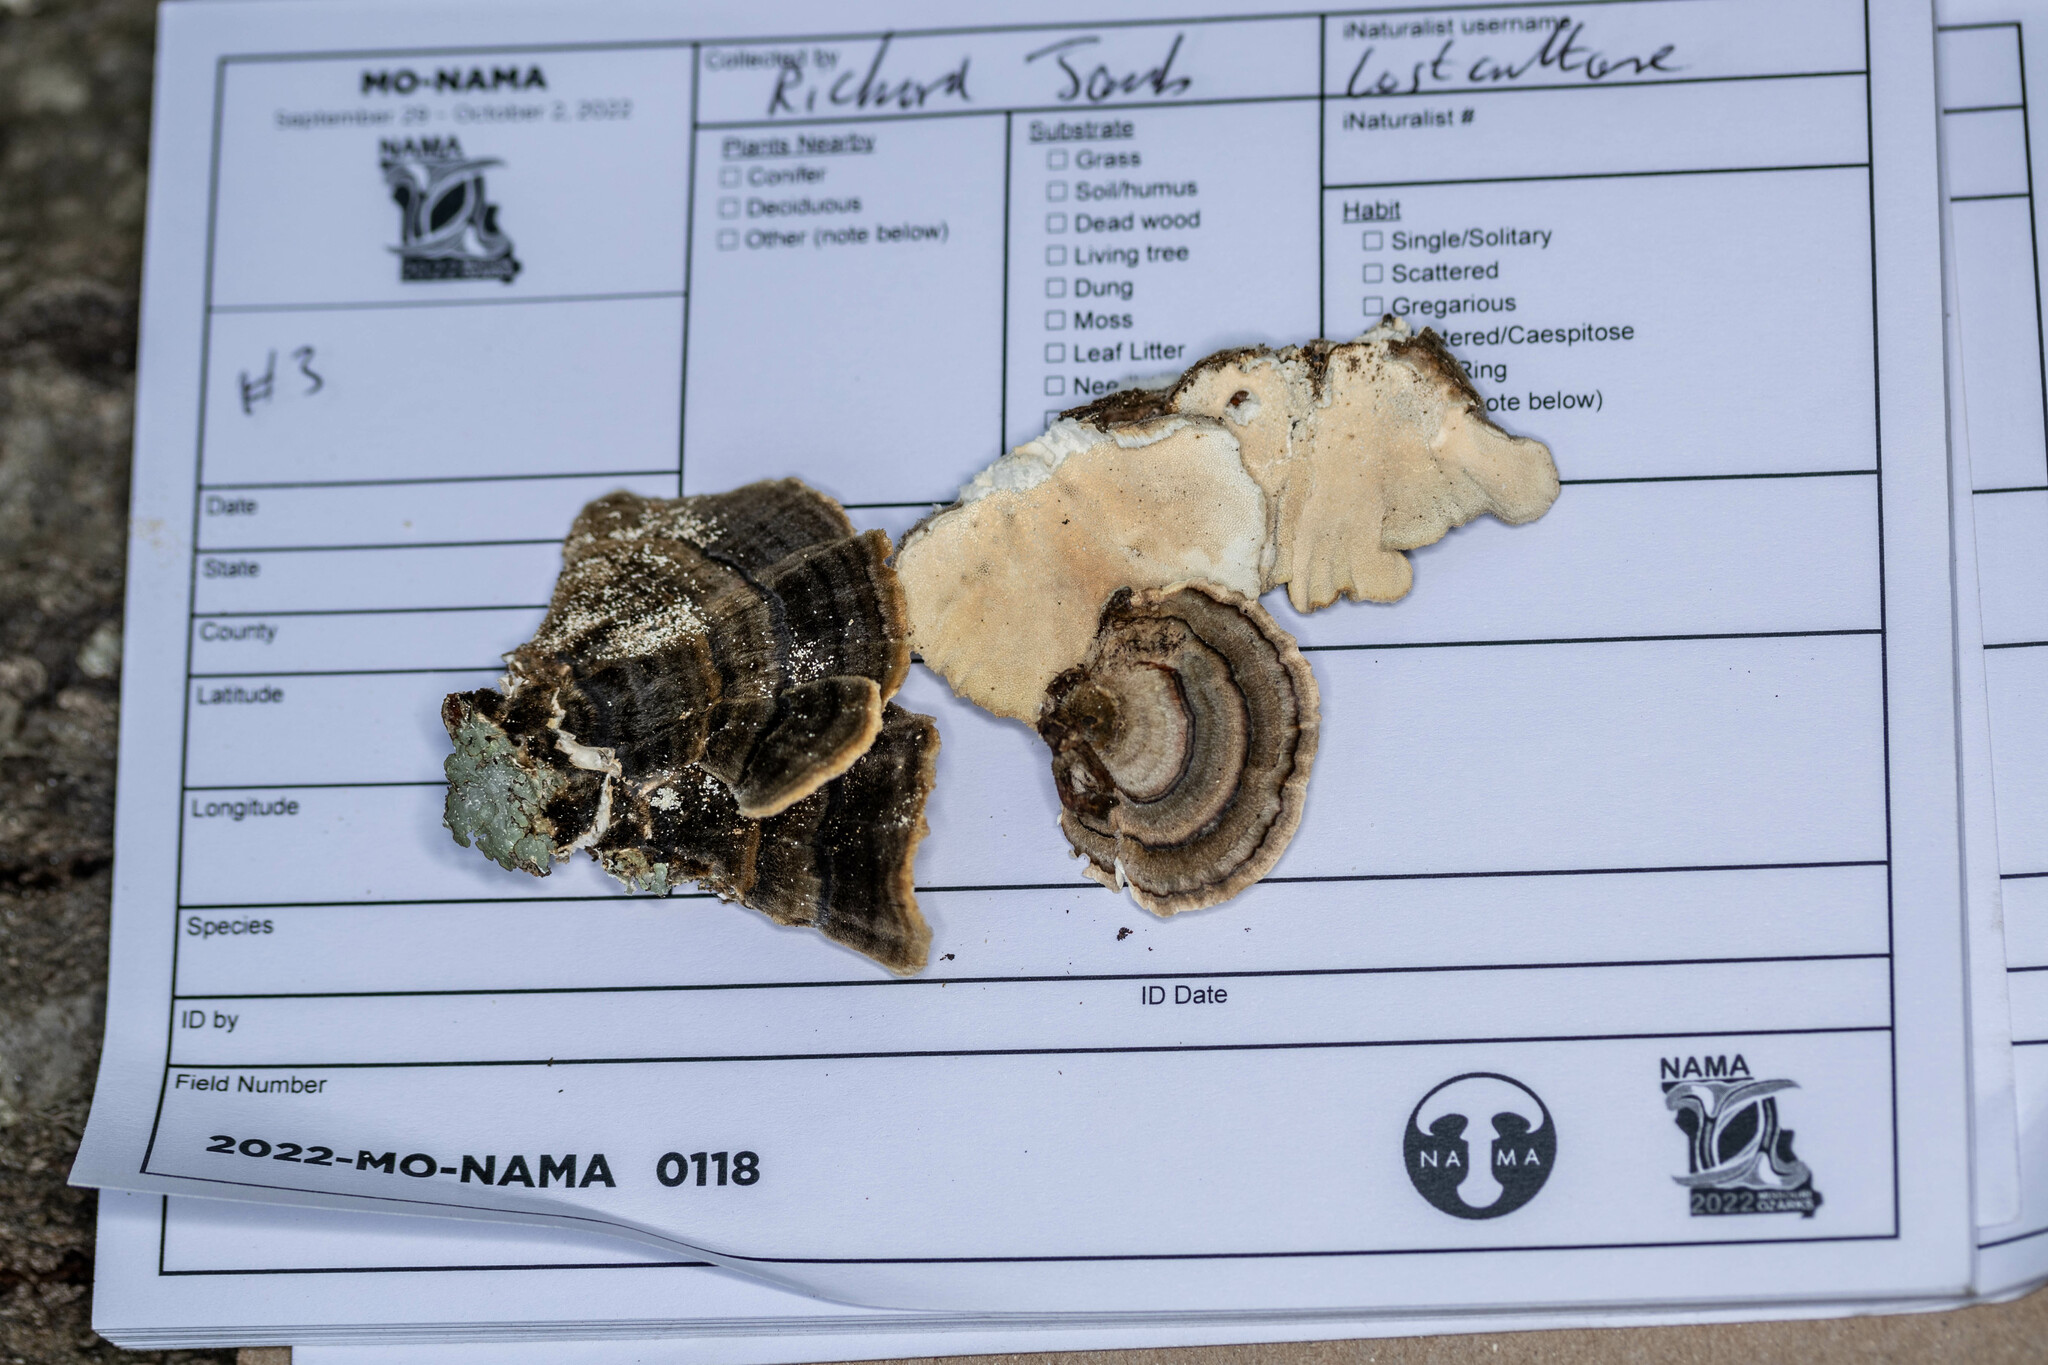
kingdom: Fungi
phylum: Basidiomycota
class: Agaricomycetes
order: Polyporales
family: Polyporaceae
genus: Trametes
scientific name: Trametes versicolor
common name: Turkeytail
